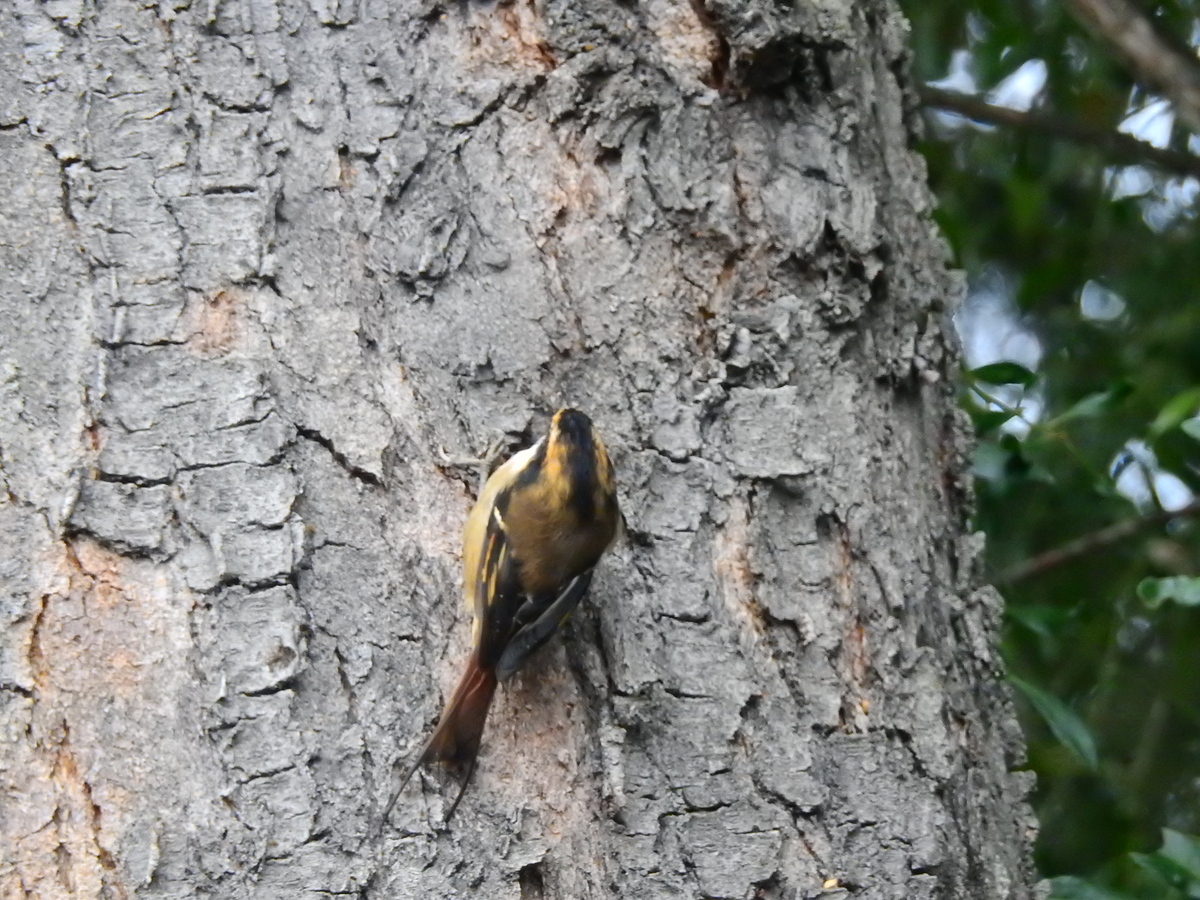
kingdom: Animalia
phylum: Chordata
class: Aves
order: Passeriformes
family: Furnariidae
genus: Aphrastura
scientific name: Aphrastura spinicauda
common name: Thorn-tailed rayadito
